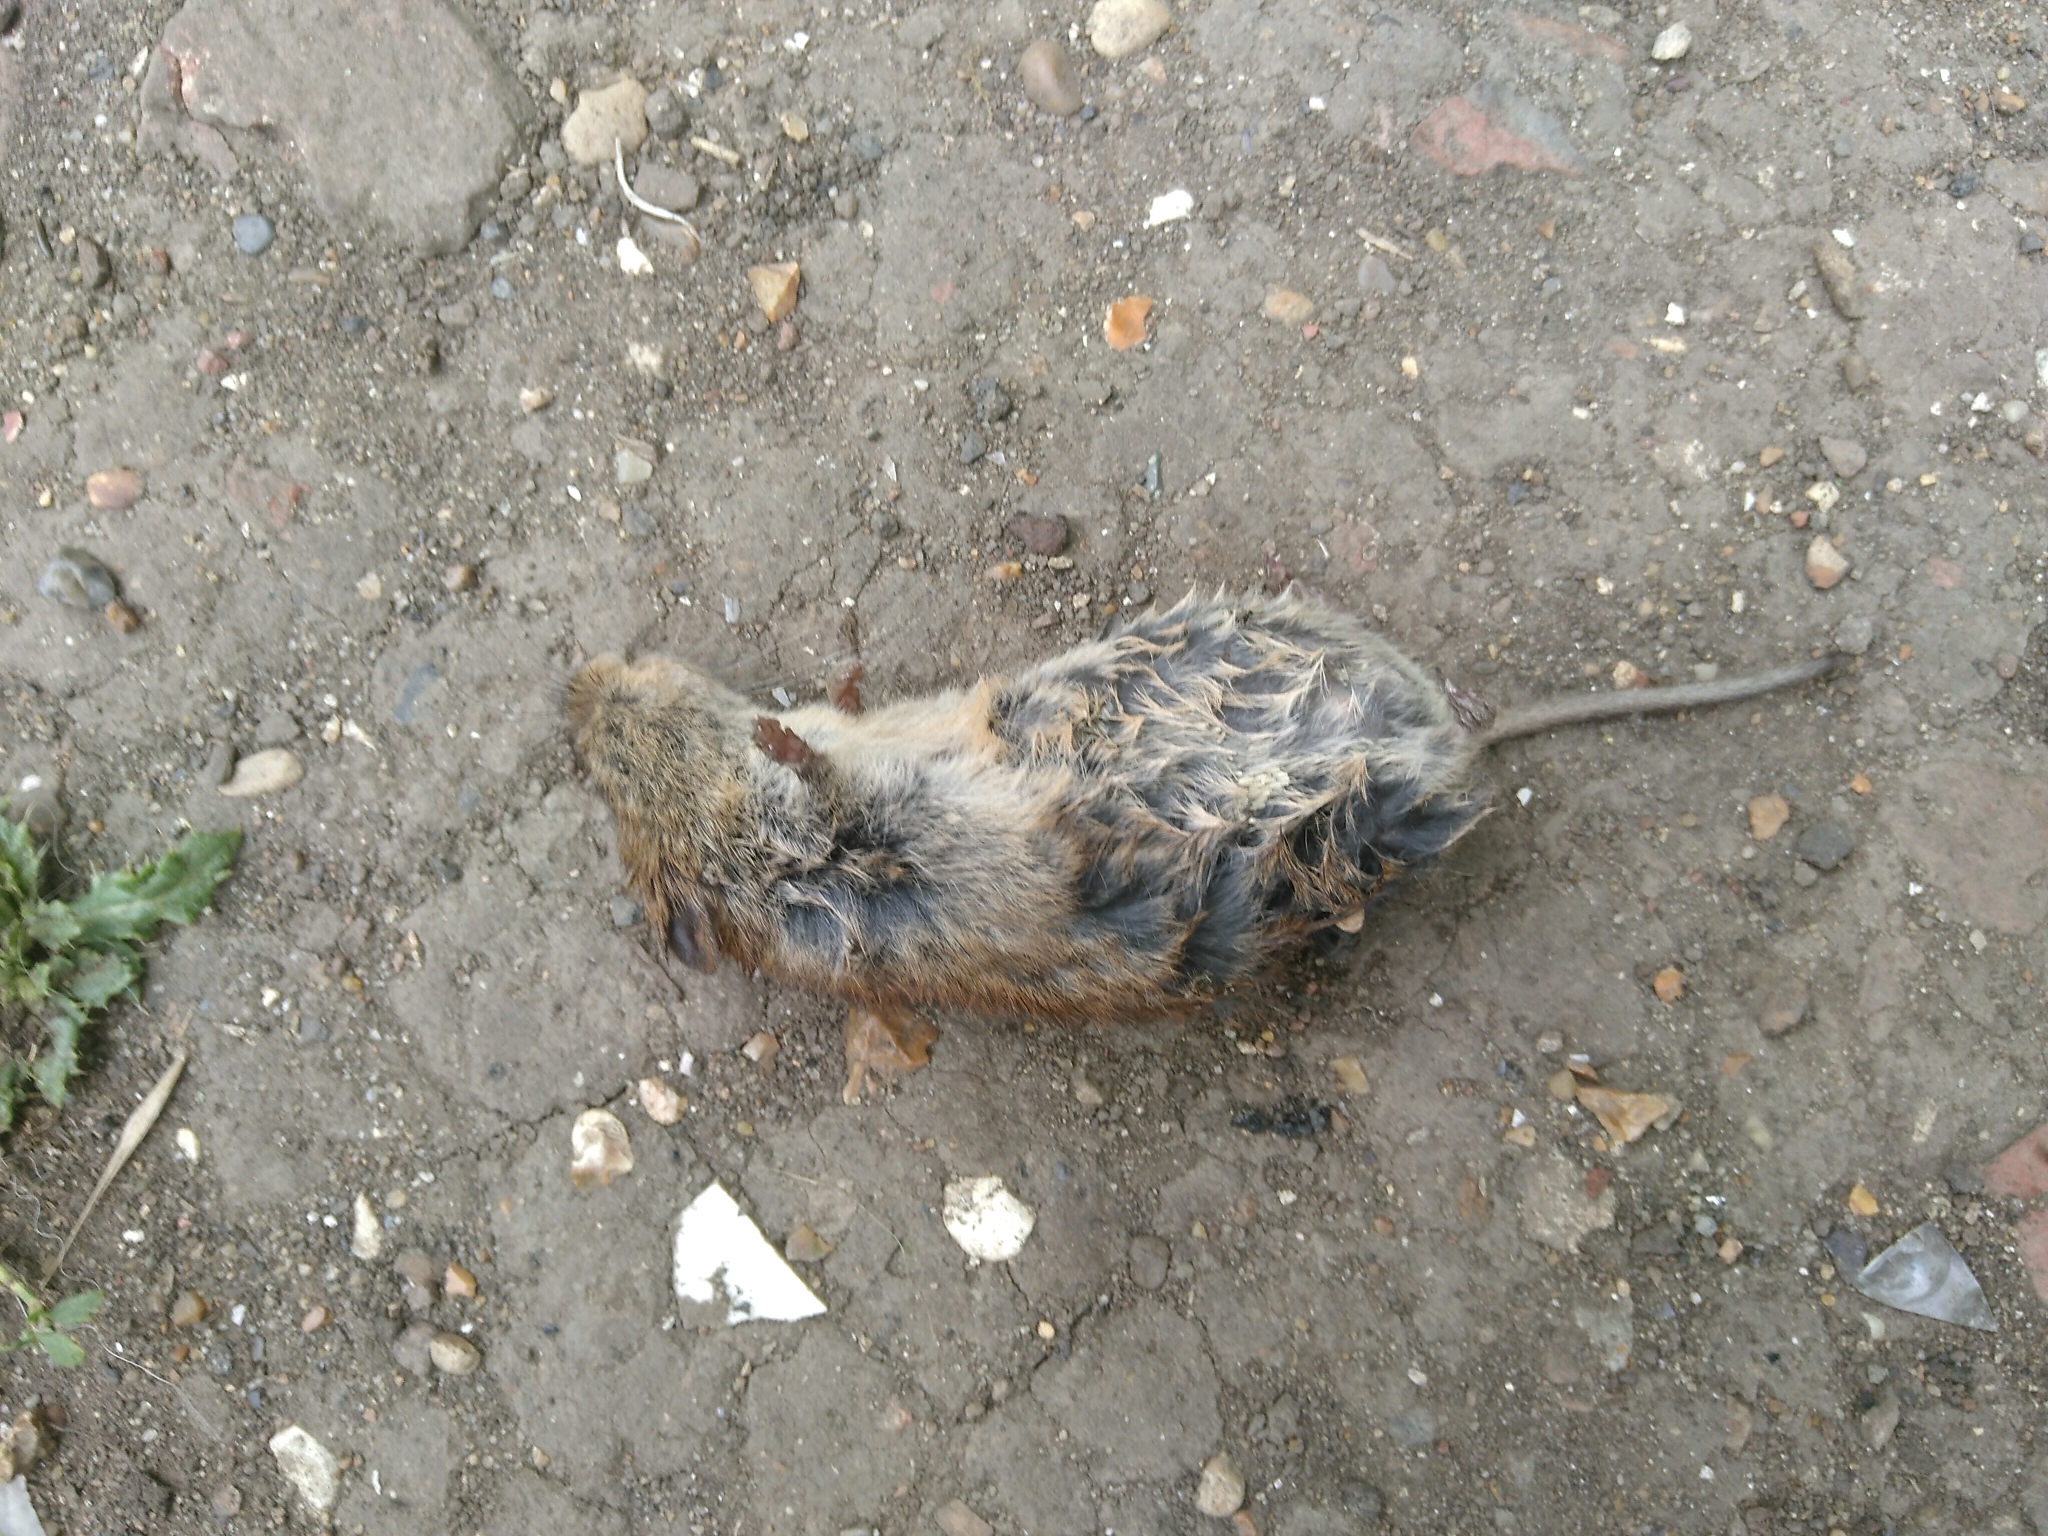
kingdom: Animalia
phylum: Chordata
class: Mammalia
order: Rodentia
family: Cricetidae
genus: Myodes
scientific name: Myodes glareolus
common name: Bank vole
